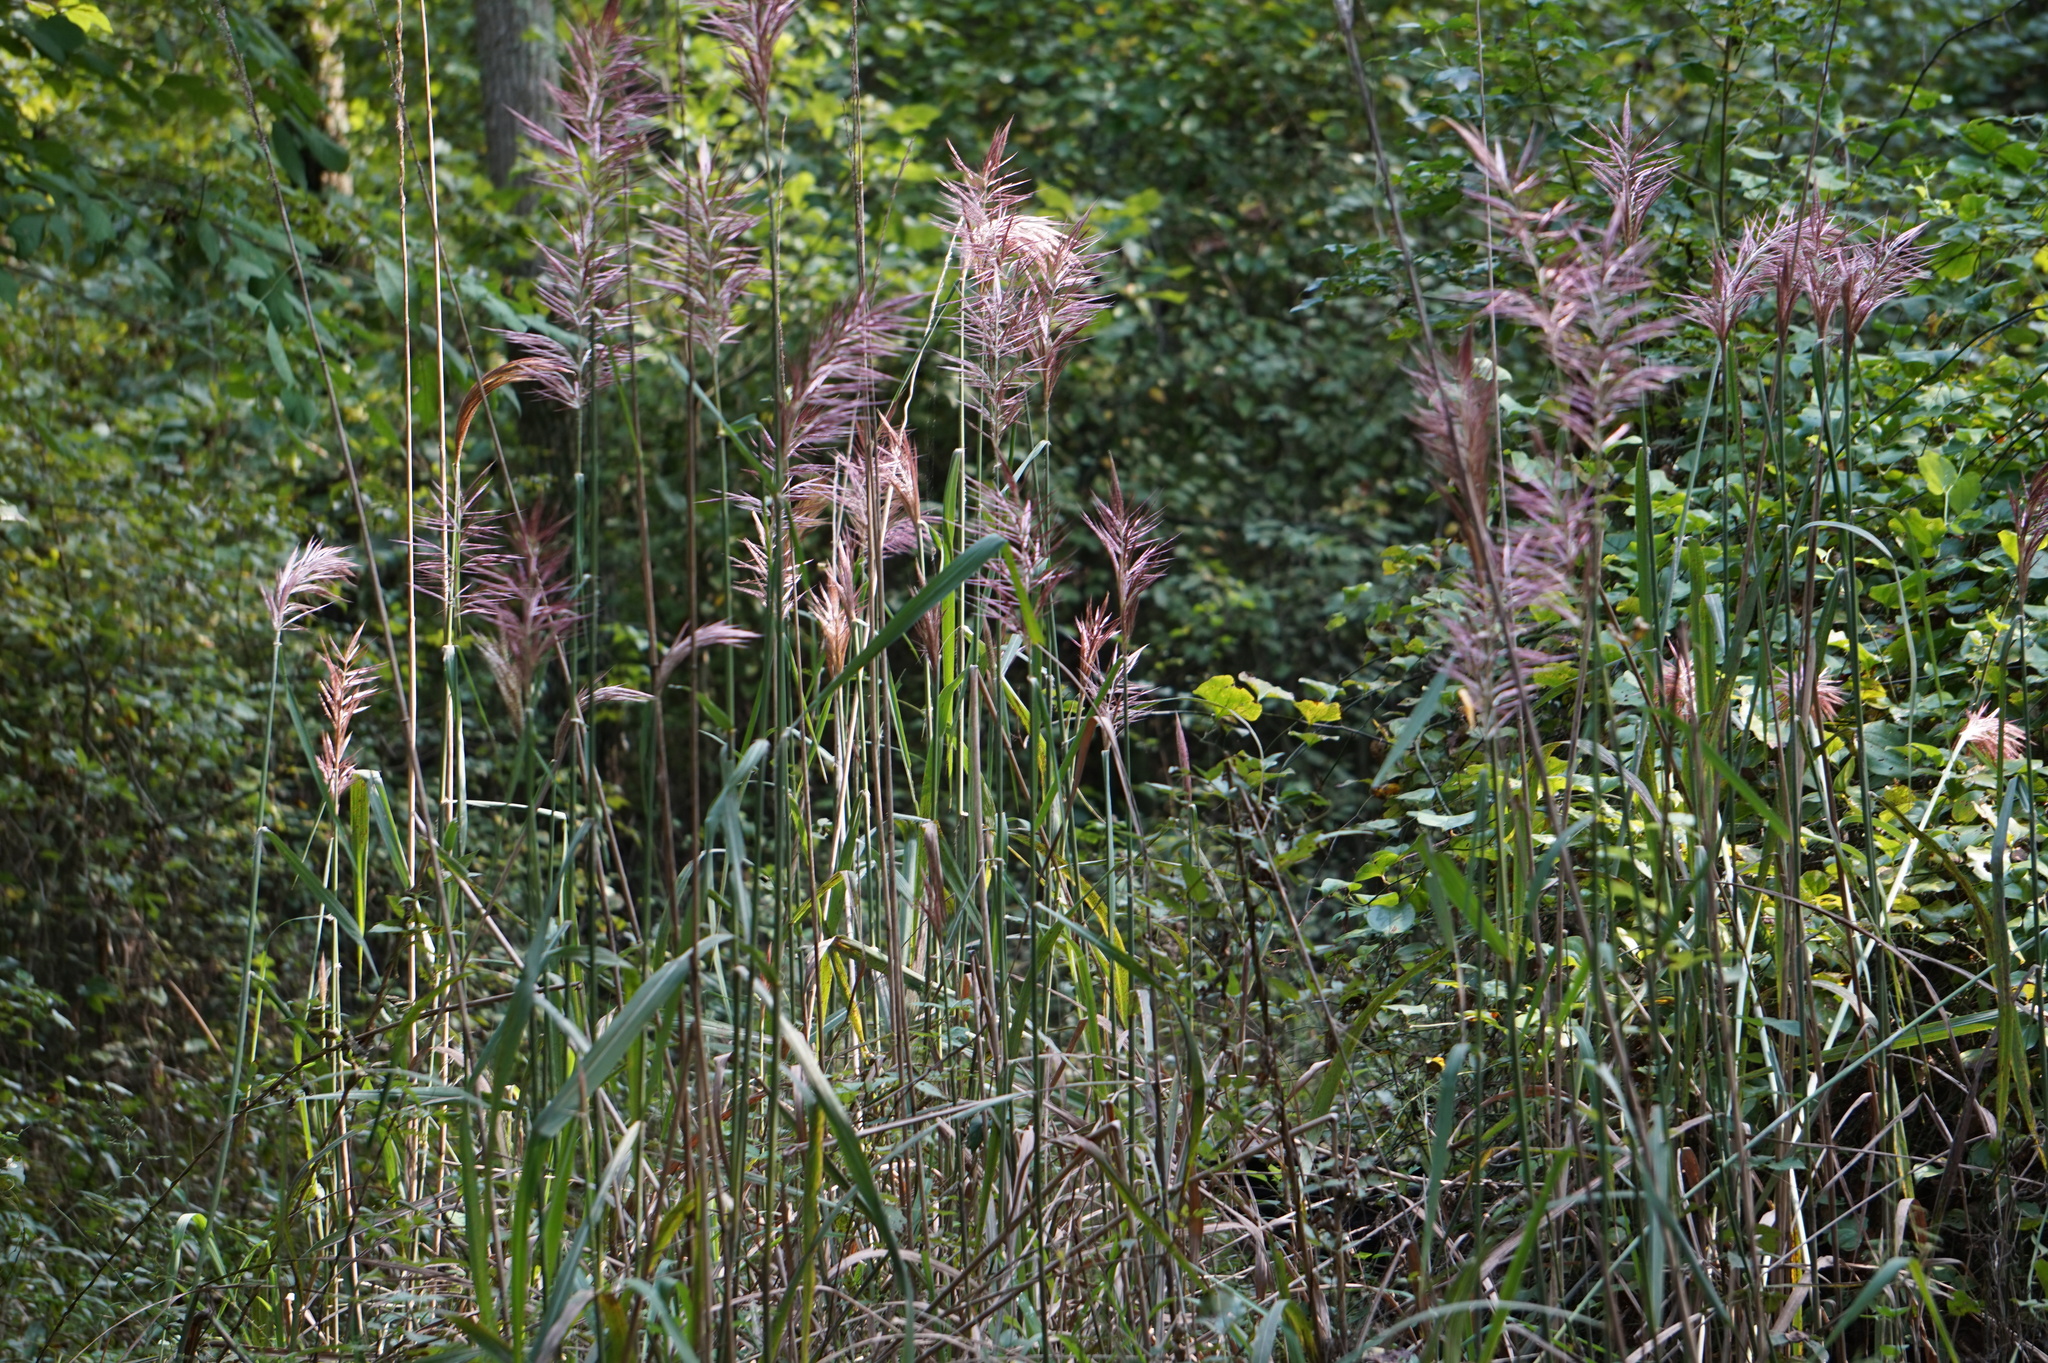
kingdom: Plantae
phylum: Tracheophyta
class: Liliopsida
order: Poales
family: Poaceae
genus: Erianthus
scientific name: Erianthus giganteus
